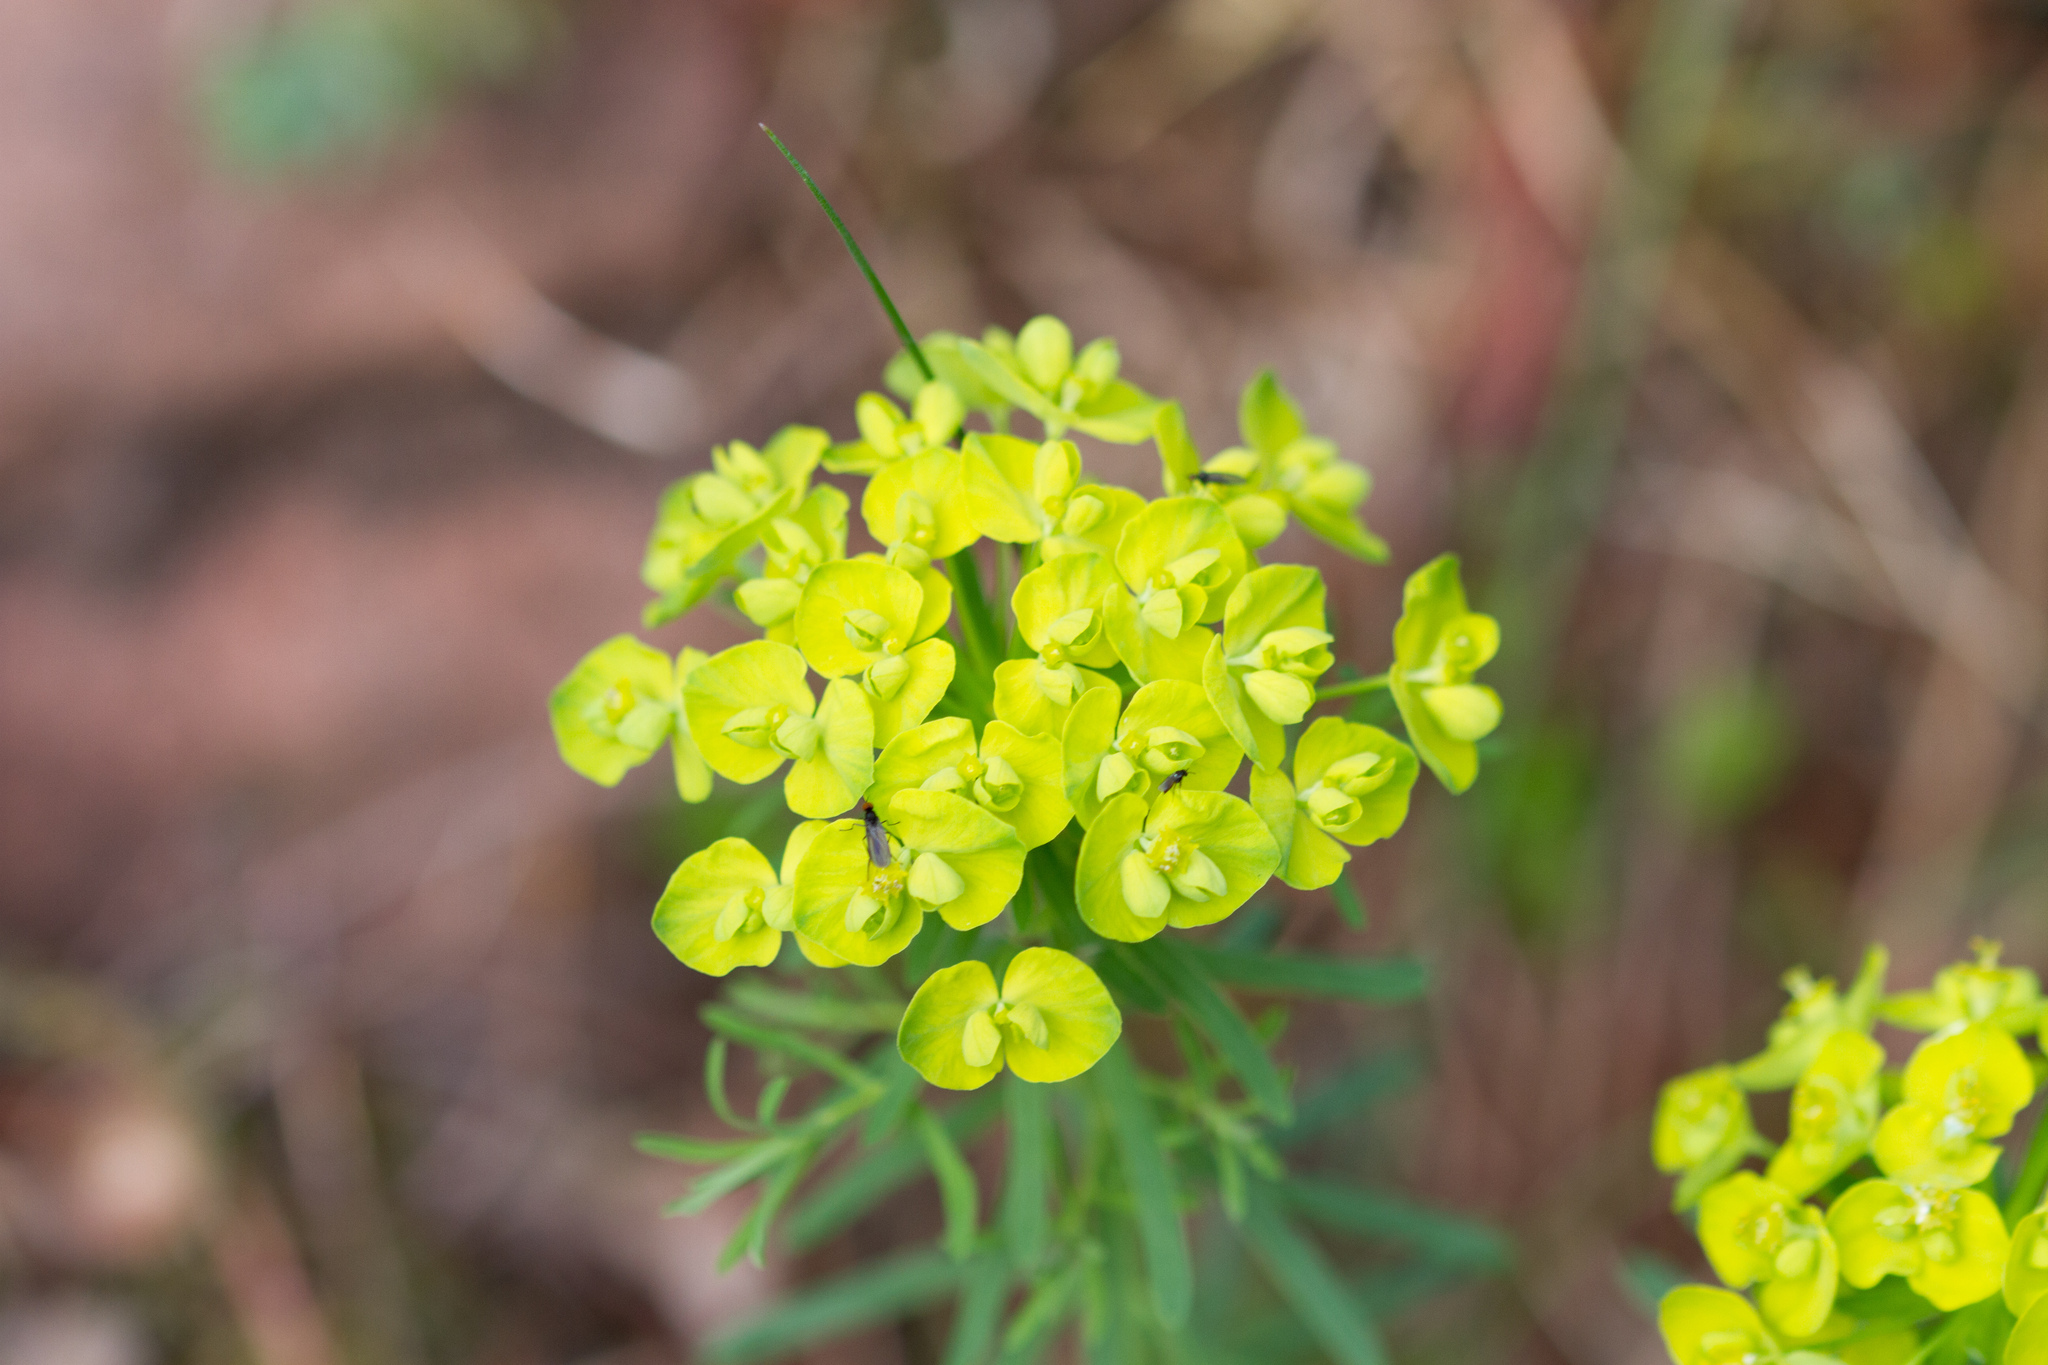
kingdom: Plantae
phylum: Tracheophyta
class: Magnoliopsida
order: Malpighiales
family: Euphorbiaceae
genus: Euphorbia
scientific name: Euphorbia cyparissias
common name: Cypress spurge
